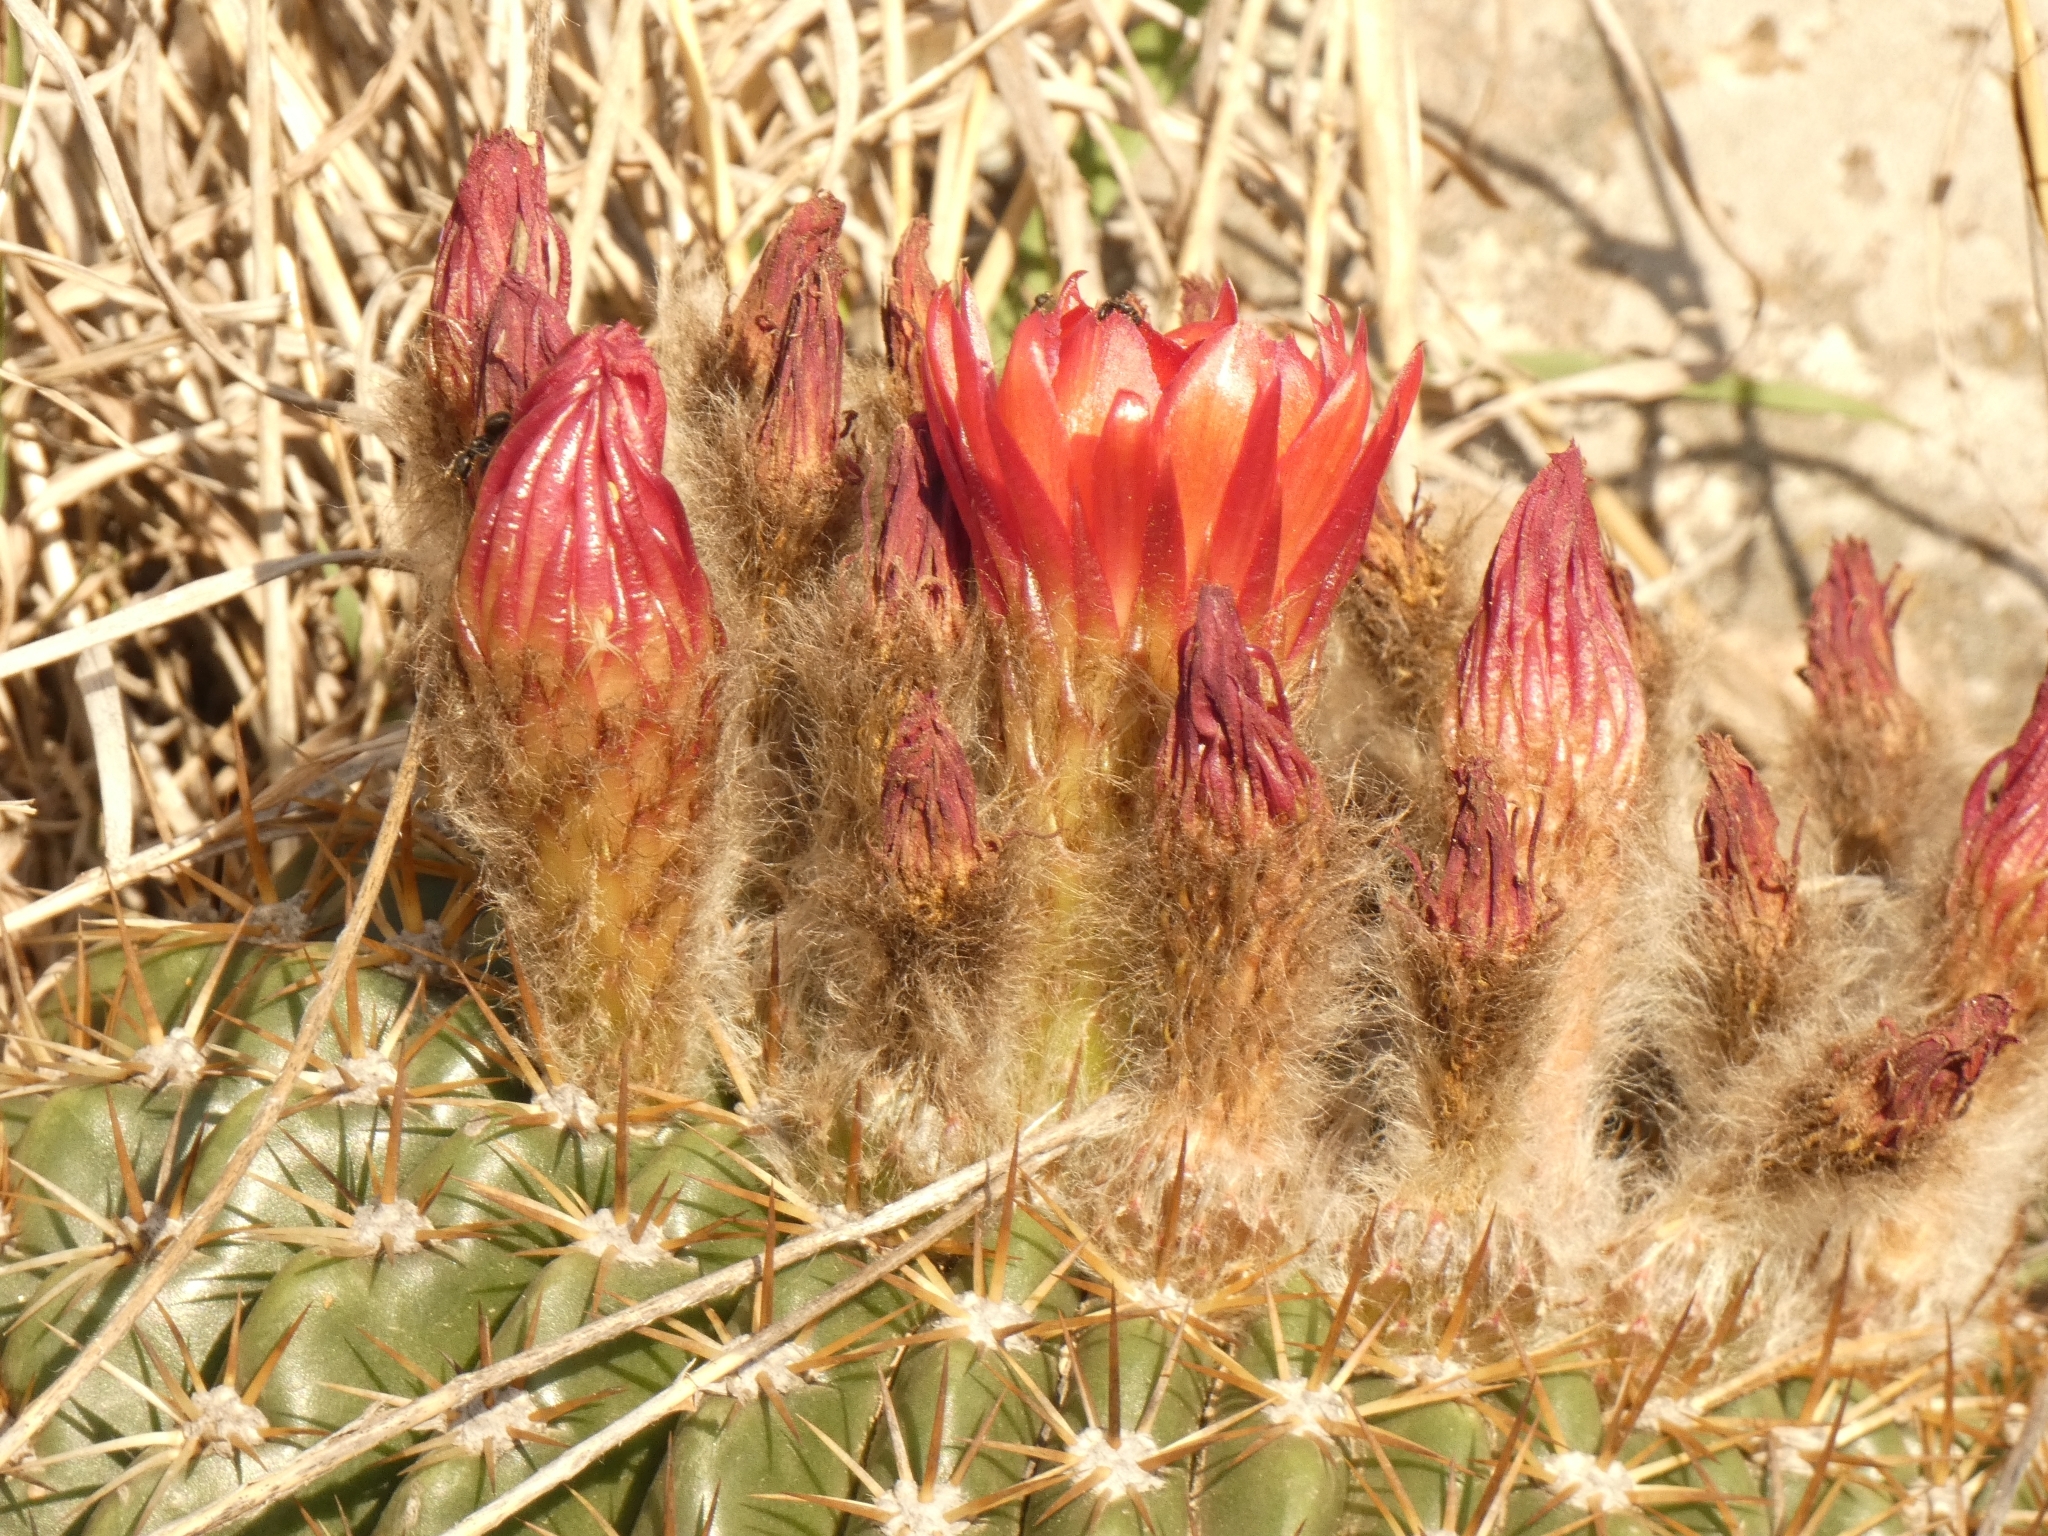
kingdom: Plantae
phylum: Tracheophyta
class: Magnoliopsida
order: Caryophyllales
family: Cactaceae
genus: Soehrensia
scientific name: Soehrensia bruchii
